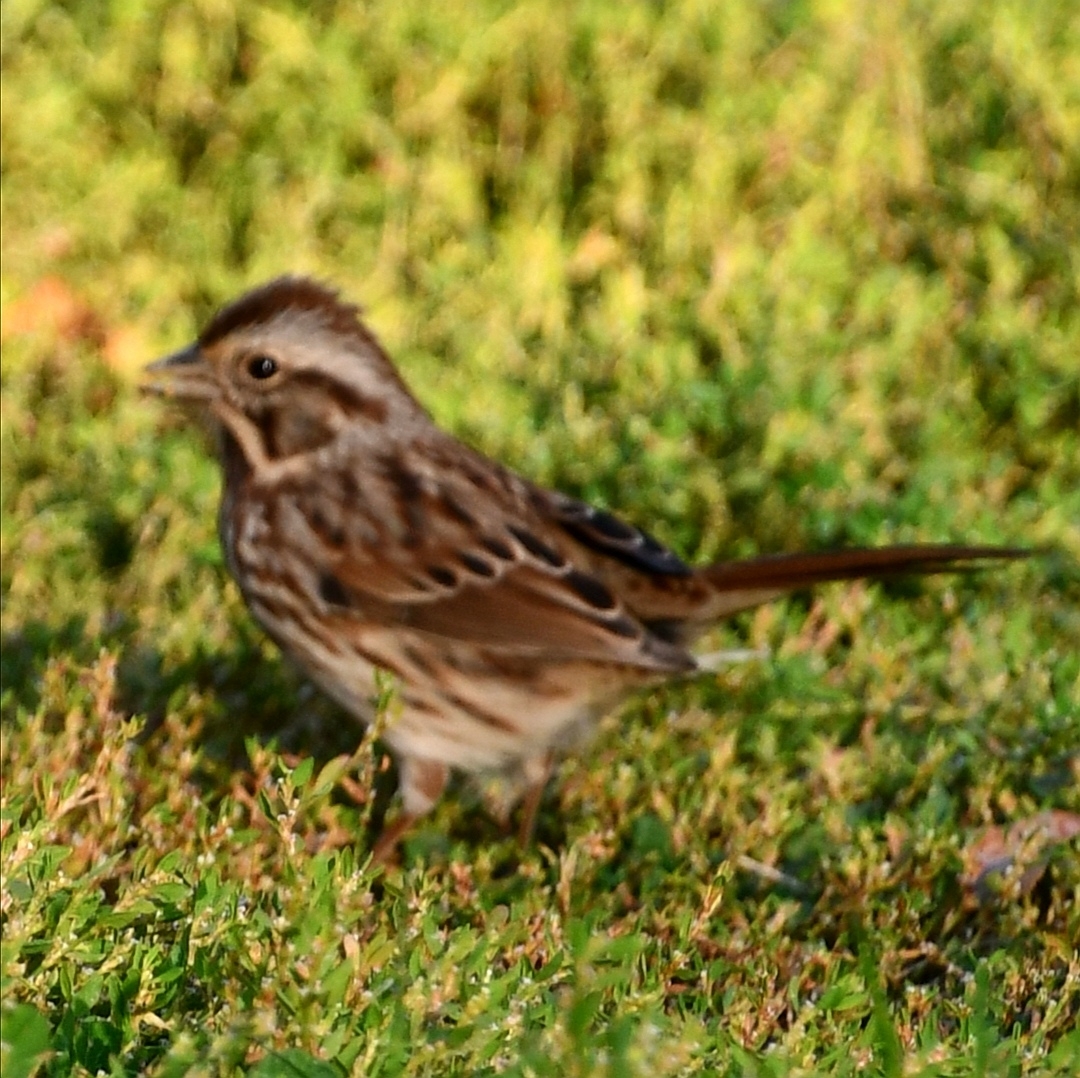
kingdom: Animalia
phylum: Chordata
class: Aves
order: Passeriformes
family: Passerellidae
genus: Melospiza
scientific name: Melospiza melodia
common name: Song sparrow
